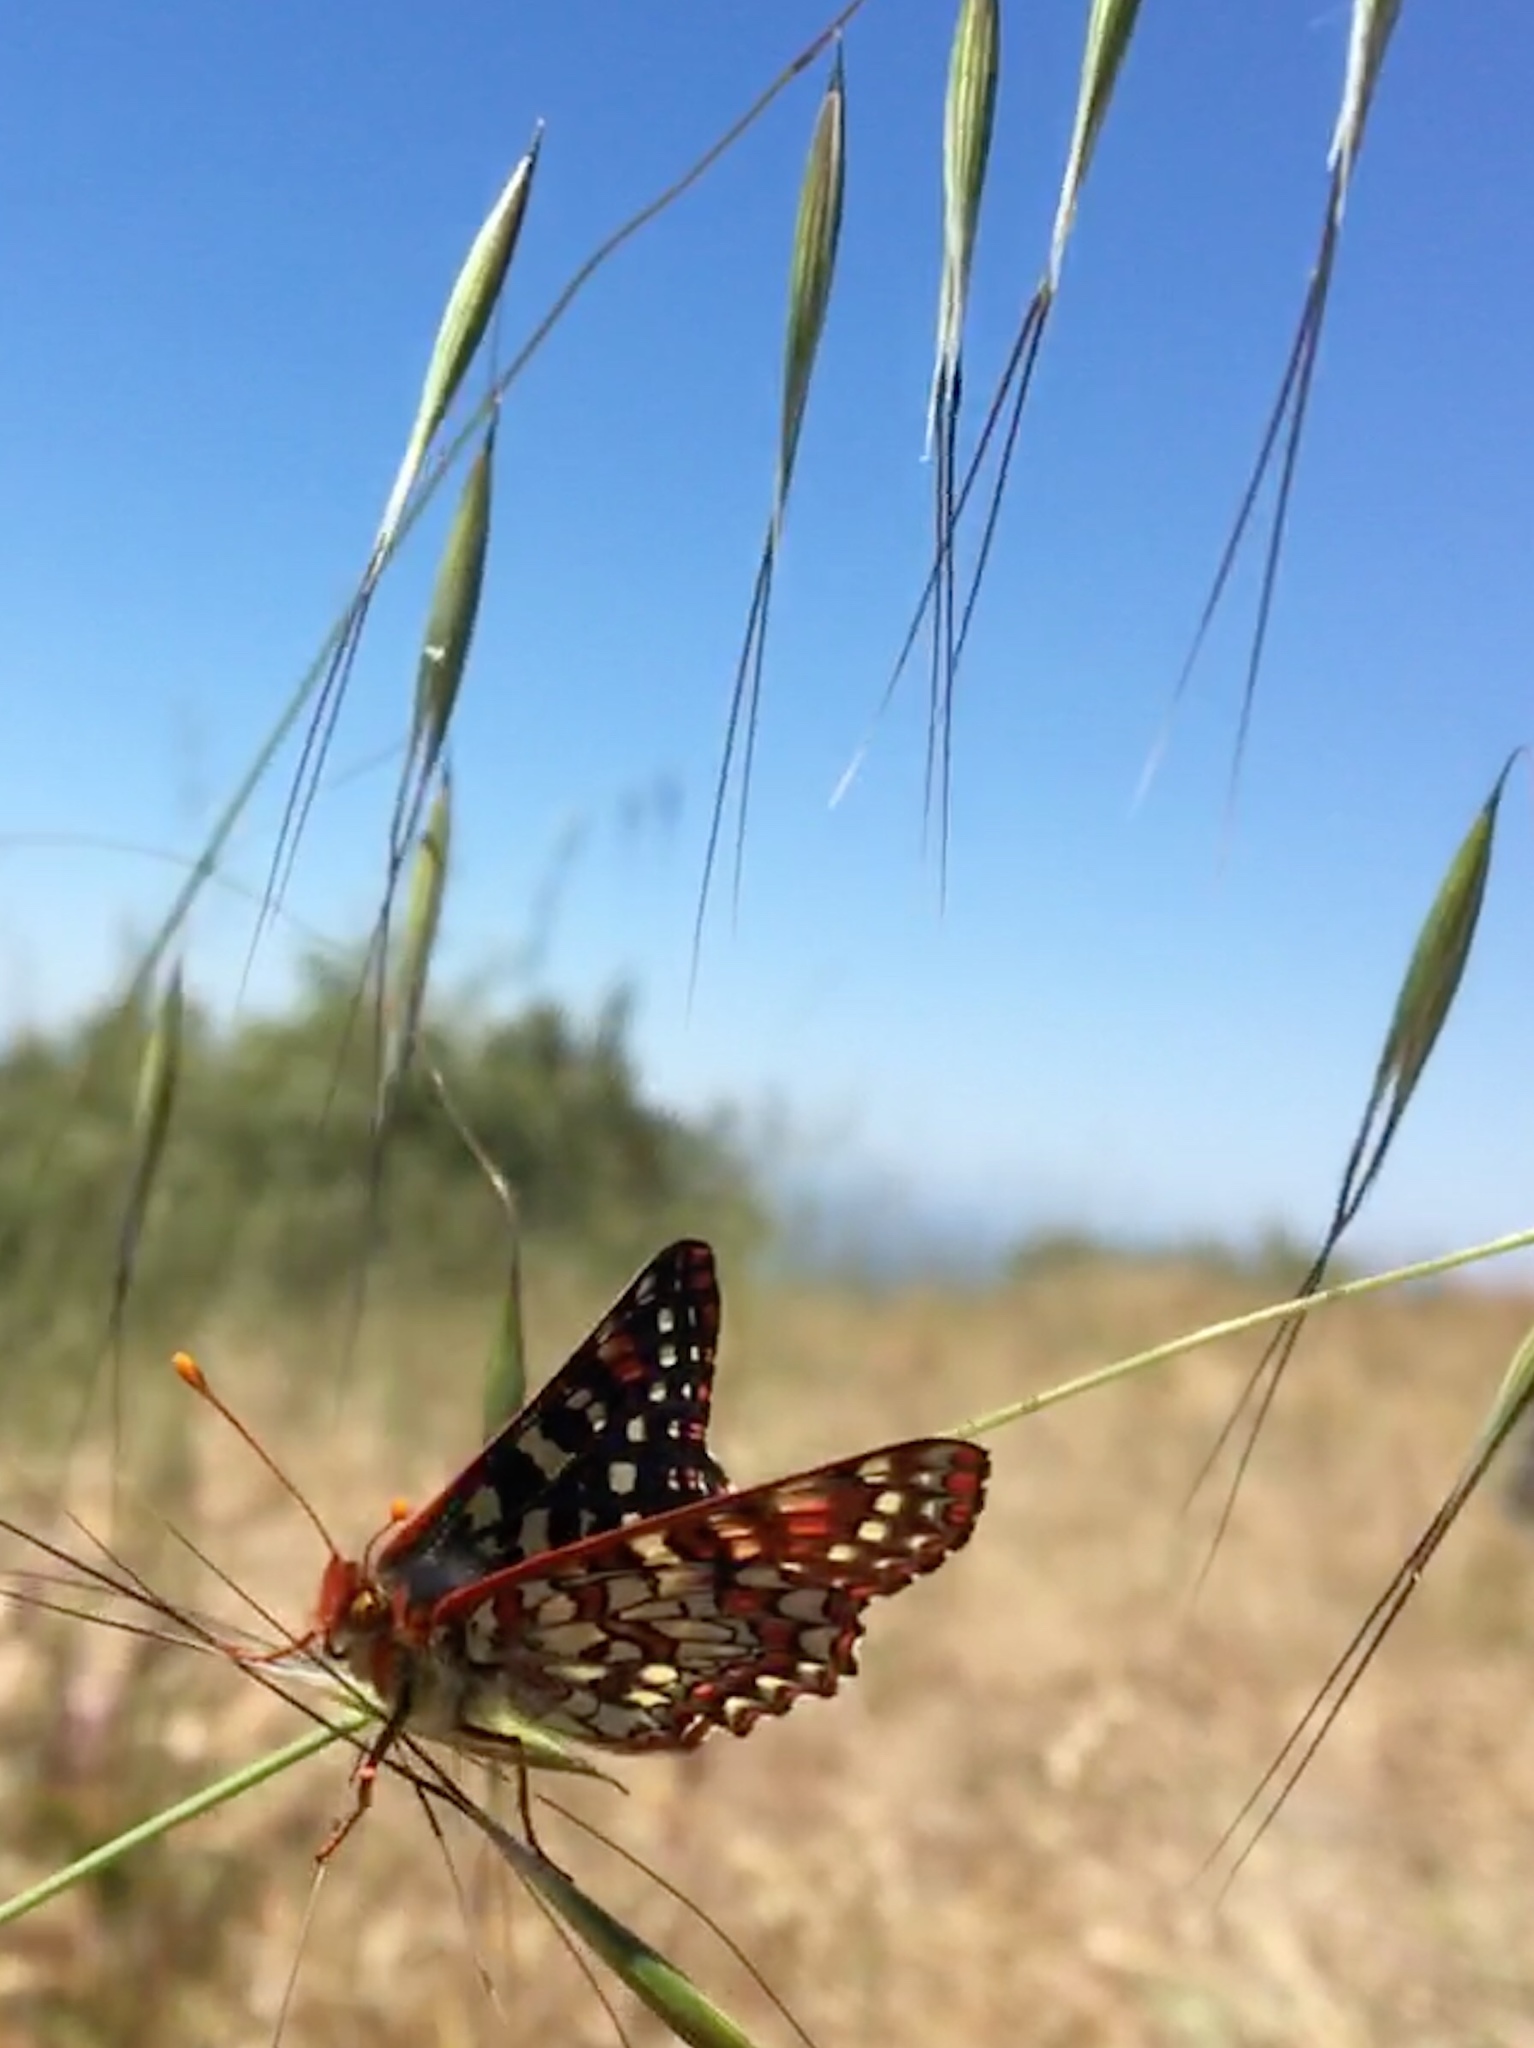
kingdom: Animalia
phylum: Arthropoda
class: Insecta
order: Lepidoptera
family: Nymphalidae
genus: Occidryas
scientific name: Occidryas chalcedona
